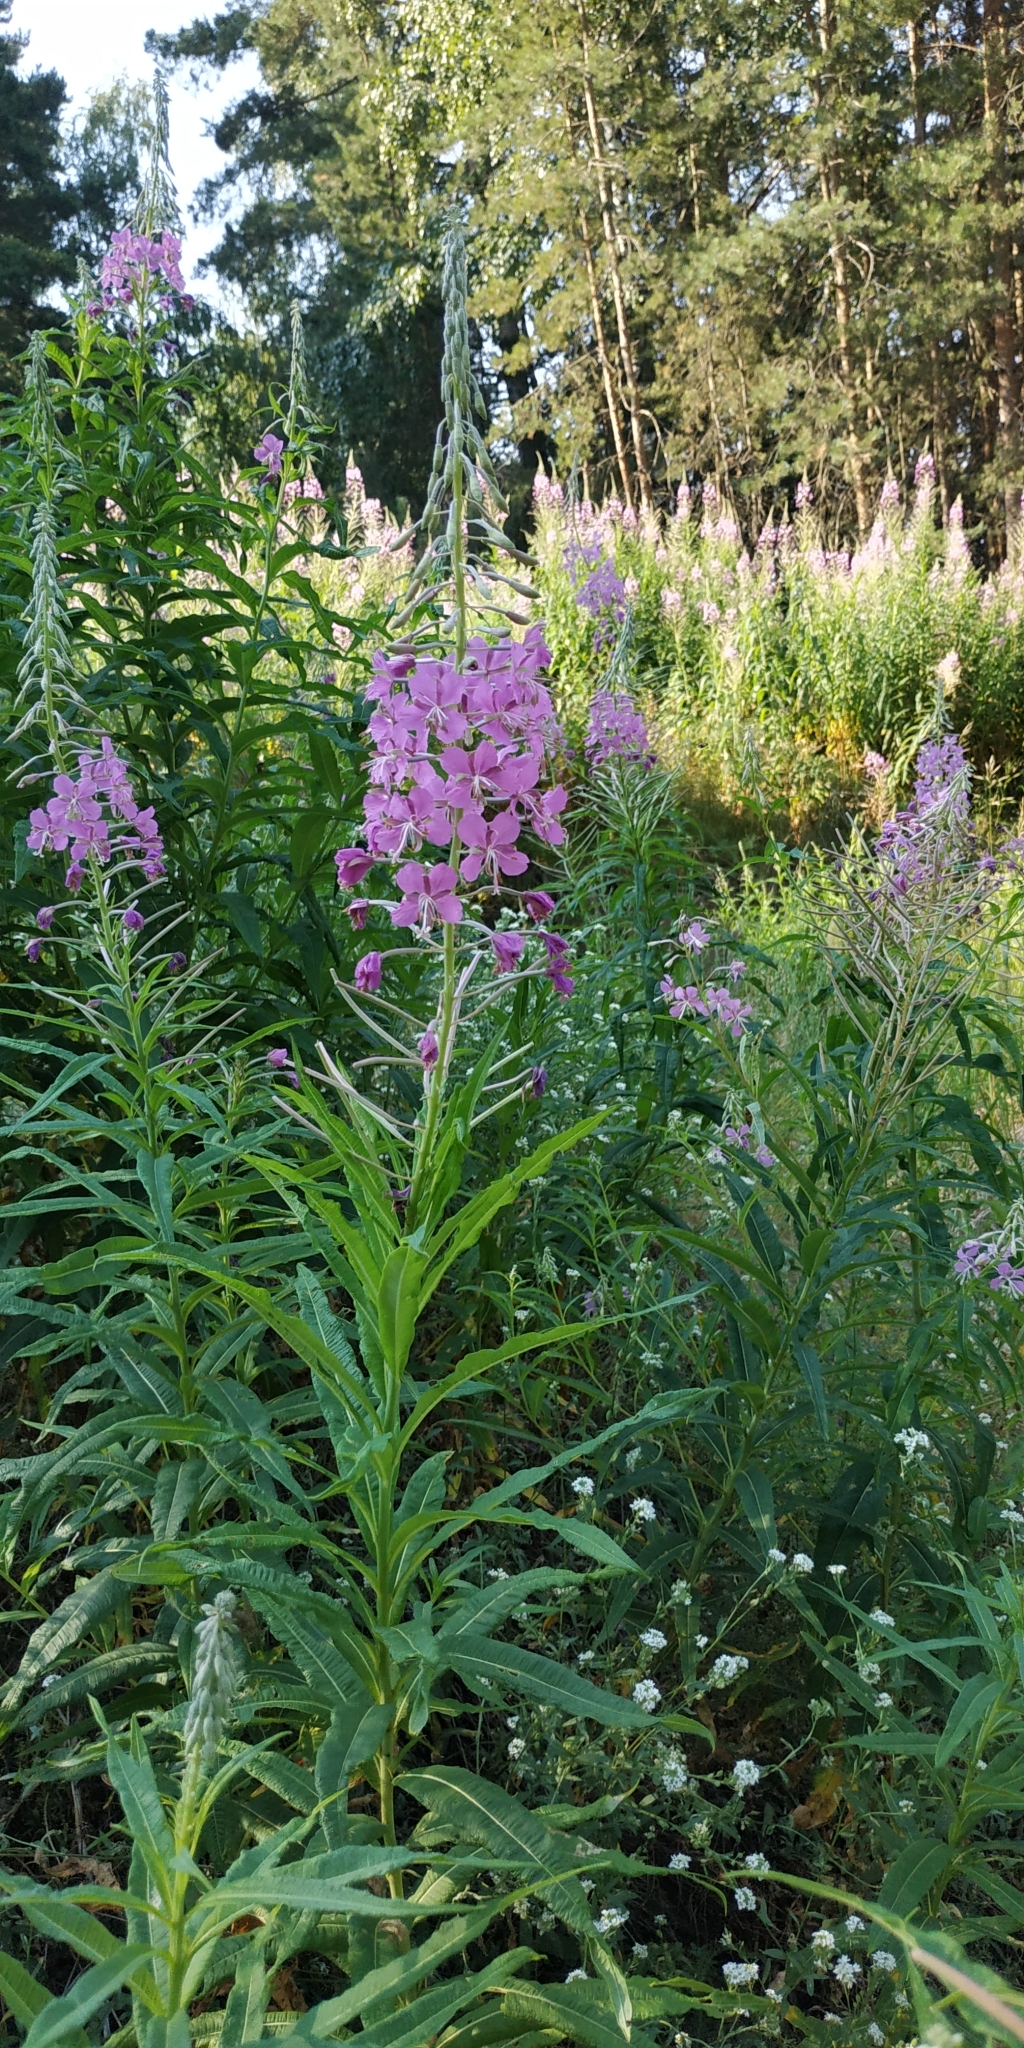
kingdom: Plantae
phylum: Tracheophyta
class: Magnoliopsida
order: Myrtales
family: Onagraceae
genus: Chamaenerion
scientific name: Chamaenerion angustifolium
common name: Fireweed
